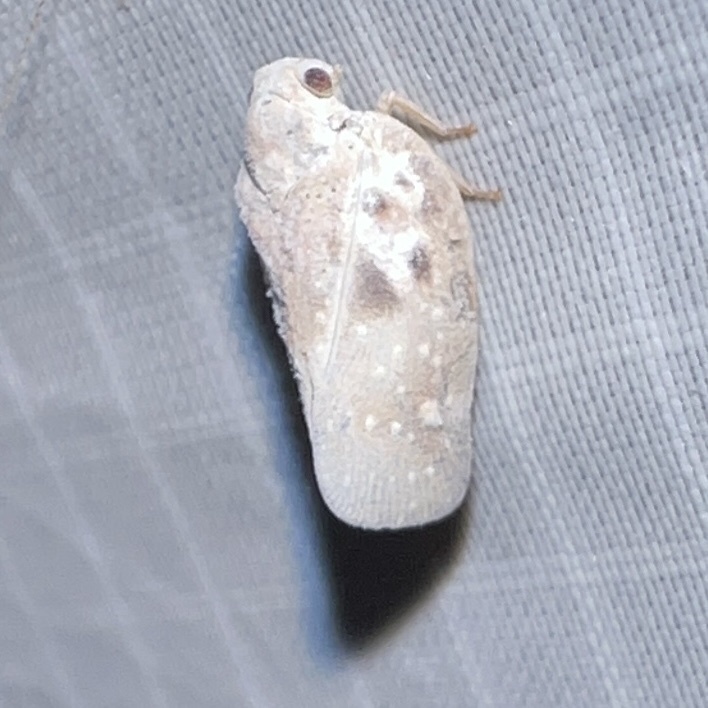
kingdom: Animalia
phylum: Arthropoda
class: Insecta
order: Hemiptera
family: Flatidae
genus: Metcalfa
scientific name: Metcalfa pruinosa
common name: Citrus flatid planthopper
